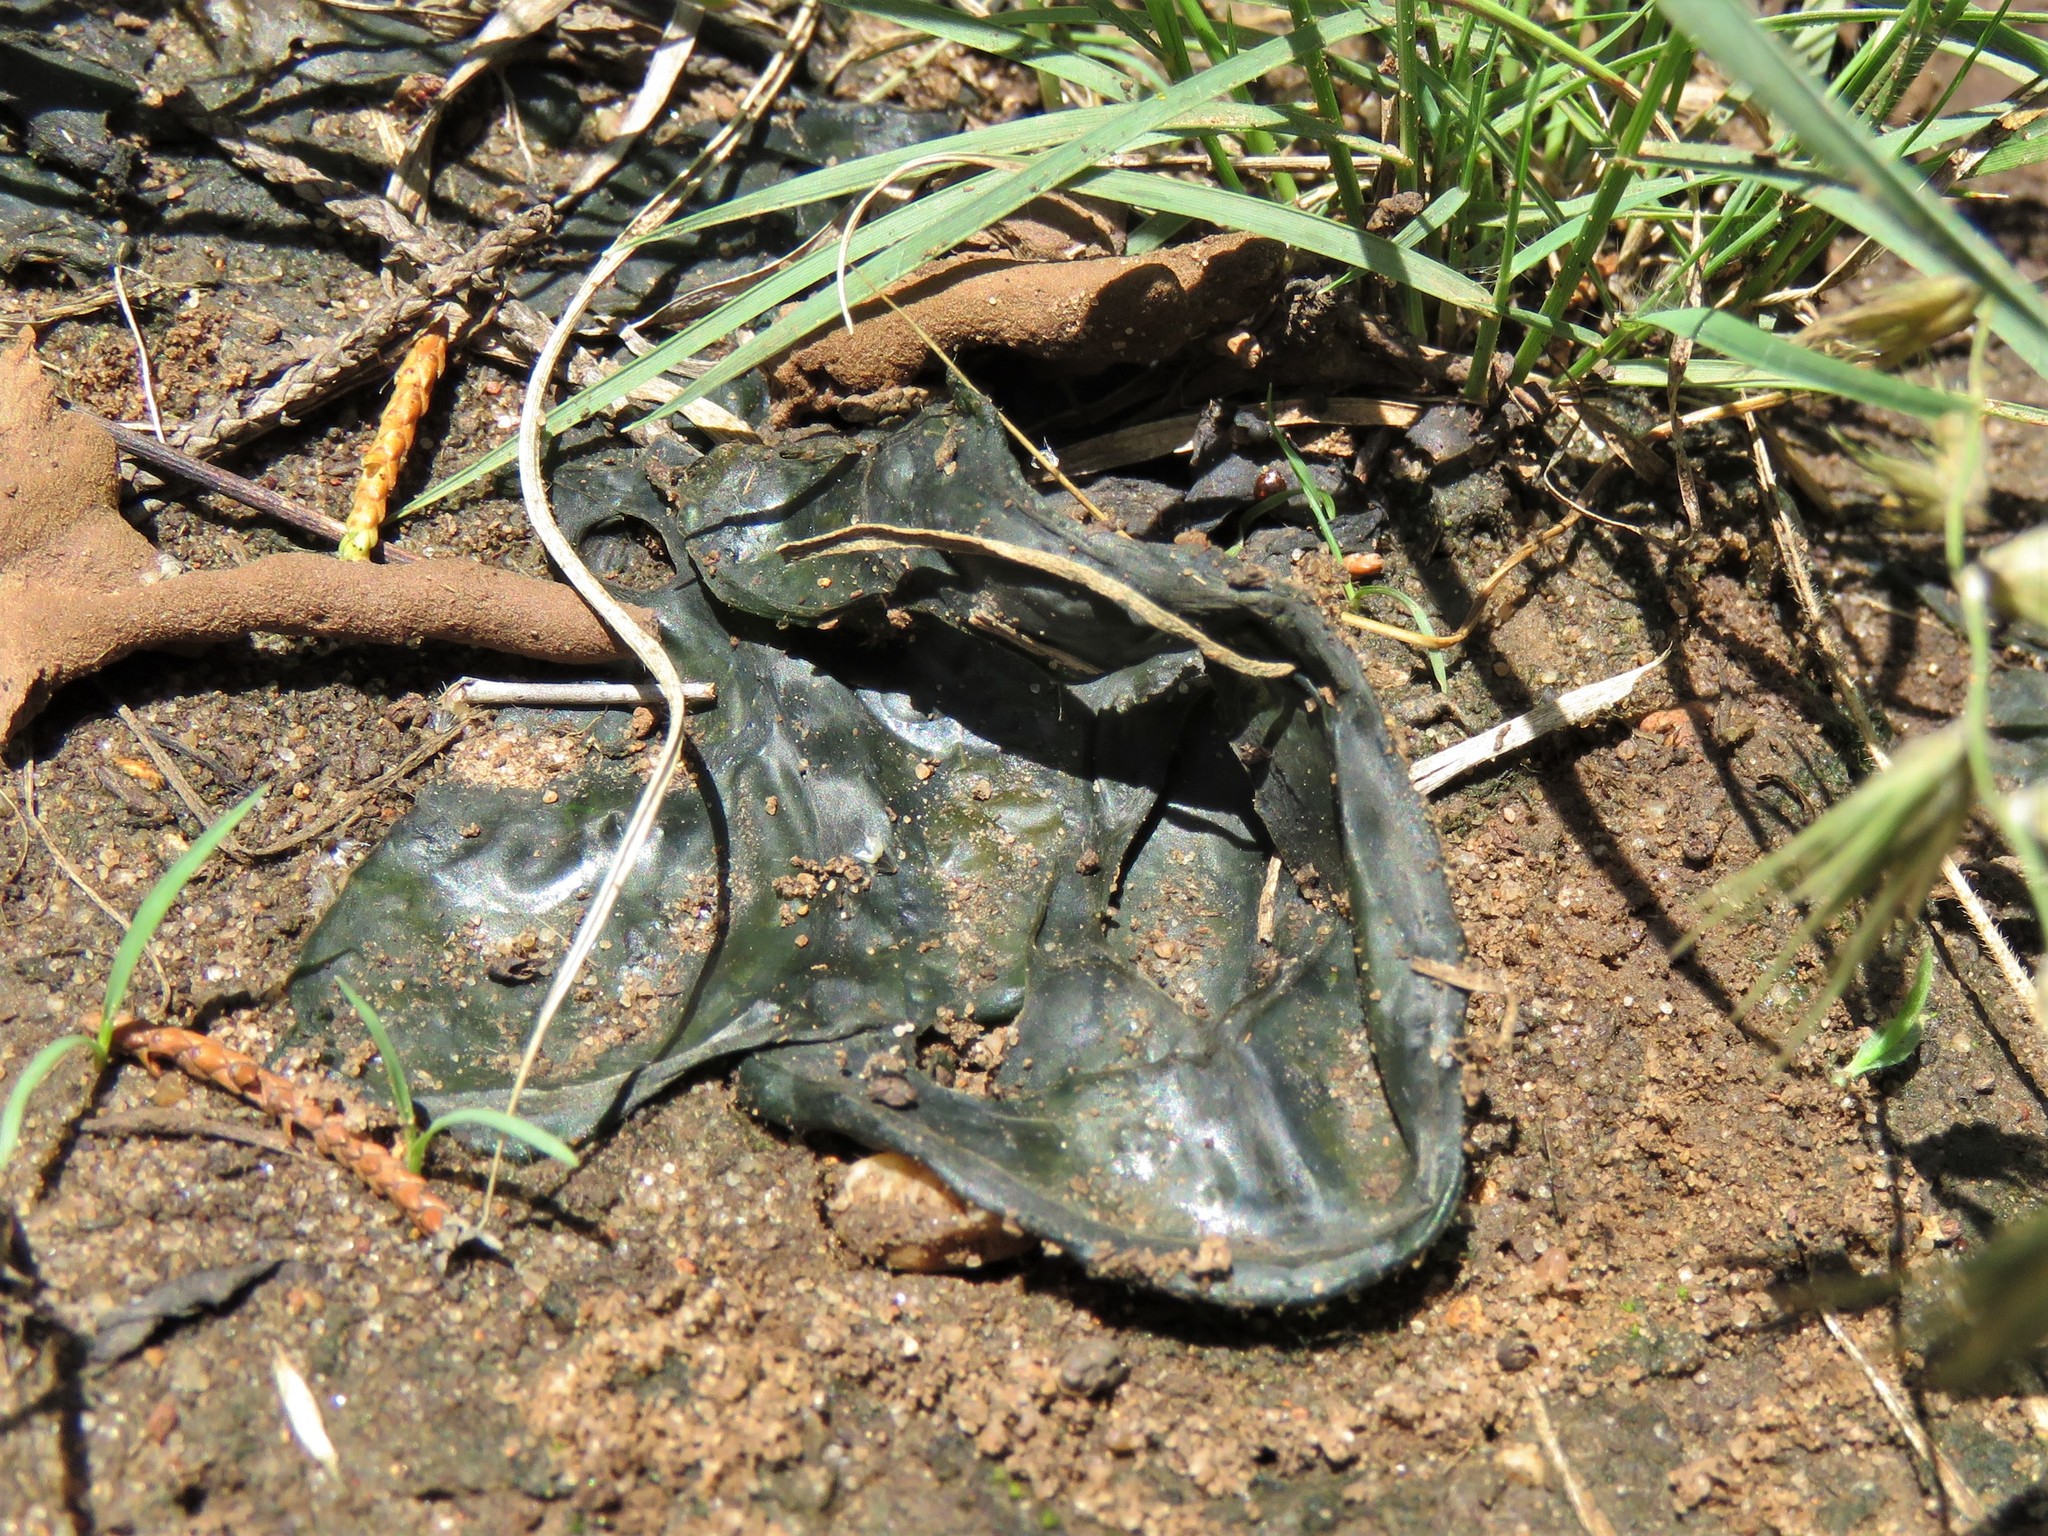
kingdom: Bacteria
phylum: Cyanobacteria
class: Cyanobacteriia
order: Cyanobacteriales
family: Nostocaceae
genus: Nostoc
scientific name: Nostoc commune
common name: Star jelly
